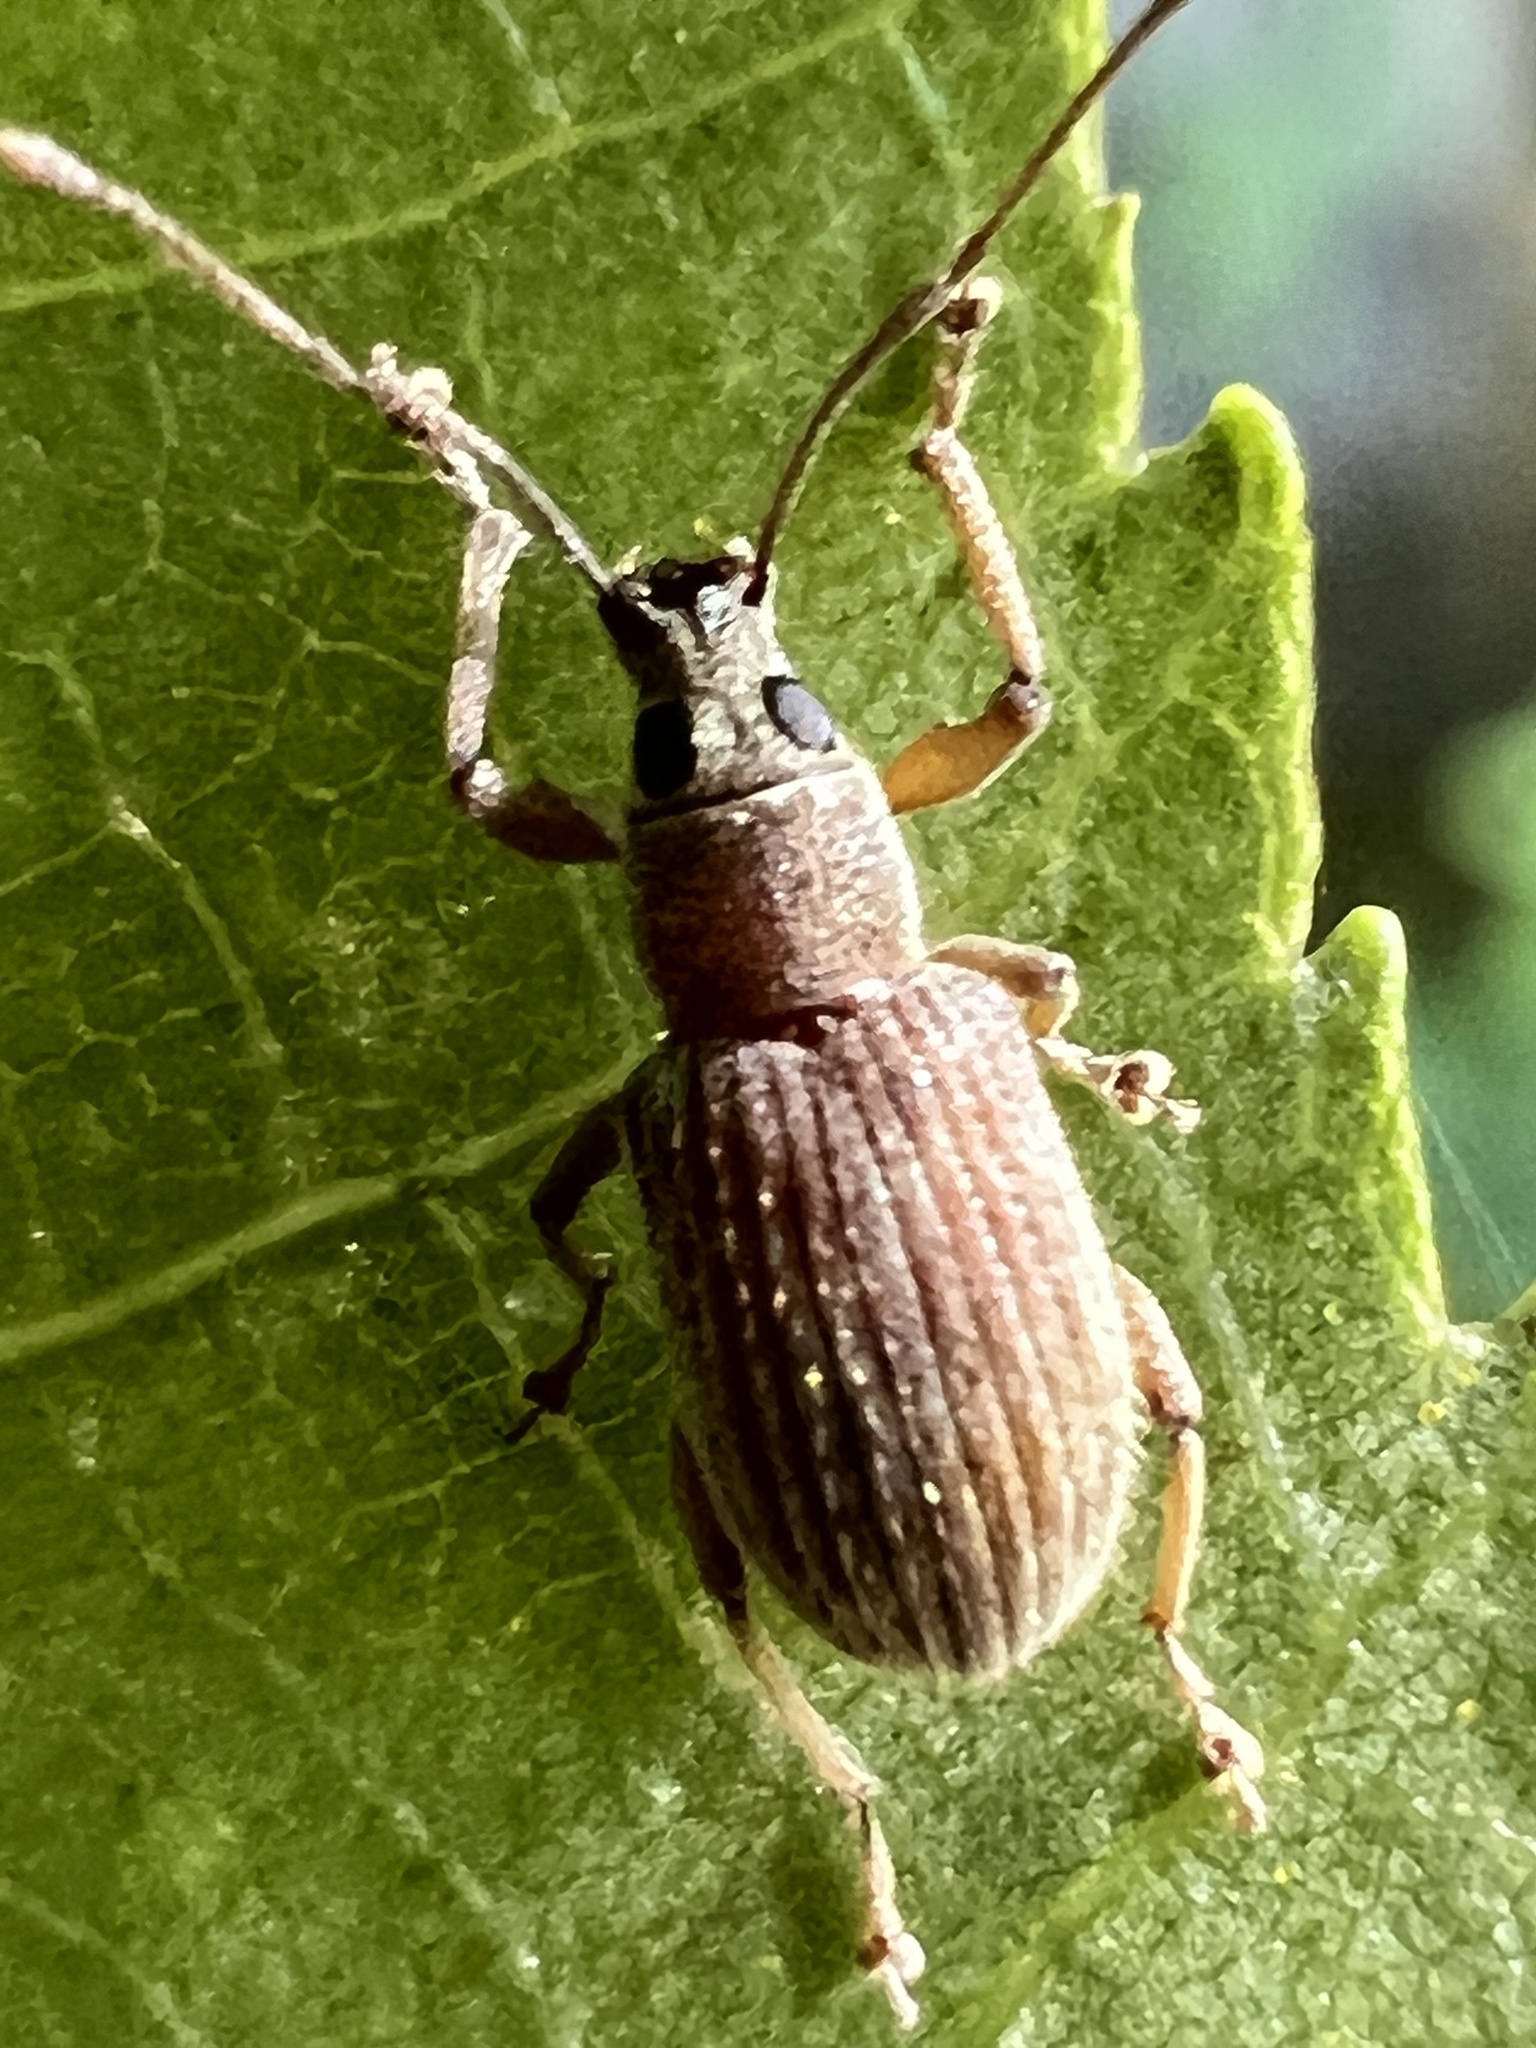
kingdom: Animalia
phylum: Arthropoda
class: Insecta
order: Coleoptera
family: Curculionidae
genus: Cyrtepistomus
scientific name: Cyrtepistomus castaneus
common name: Weevil
